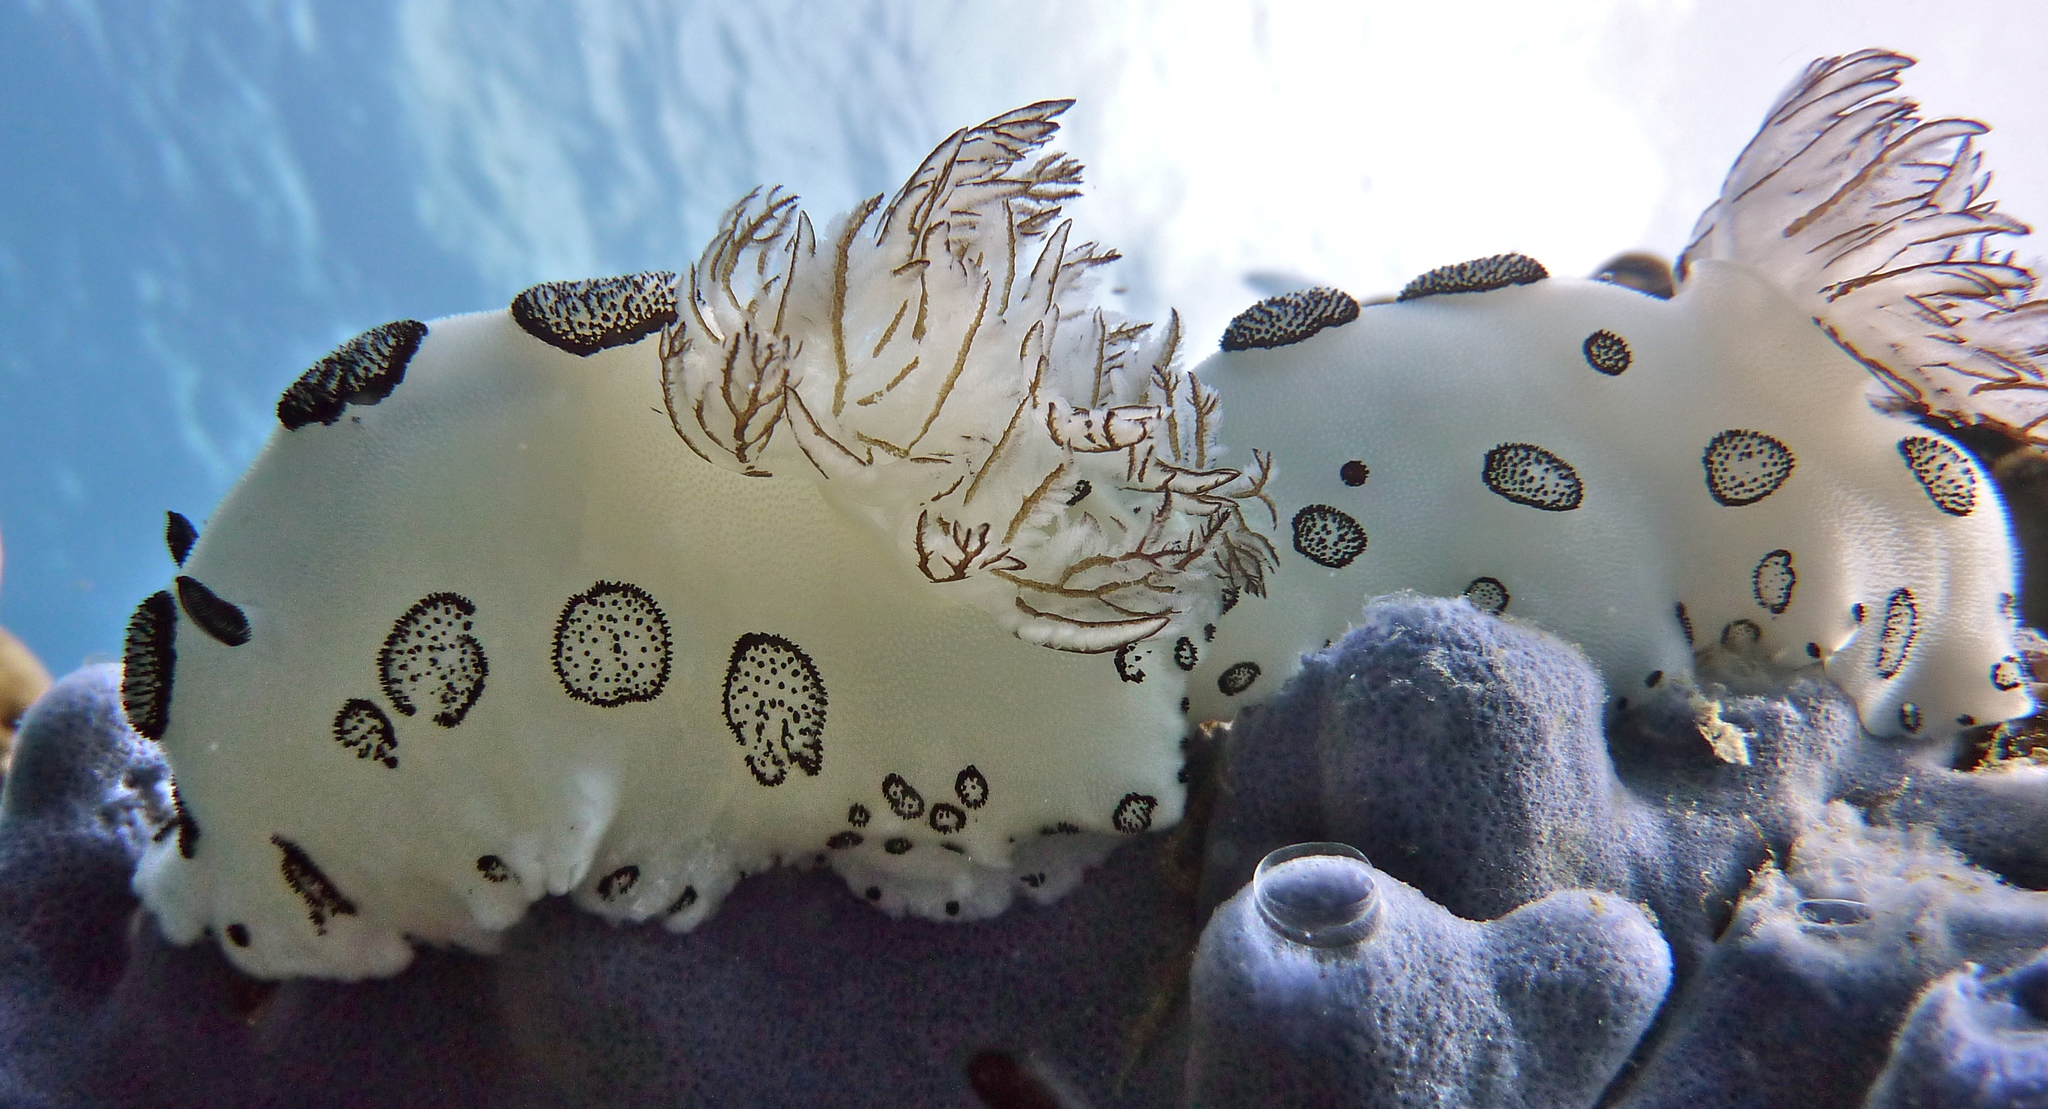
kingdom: Animalia
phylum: Mollusca
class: Gastropoda
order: Nudibranchia
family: Discodorididae
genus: Jorunna
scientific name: Jorunna funebris
